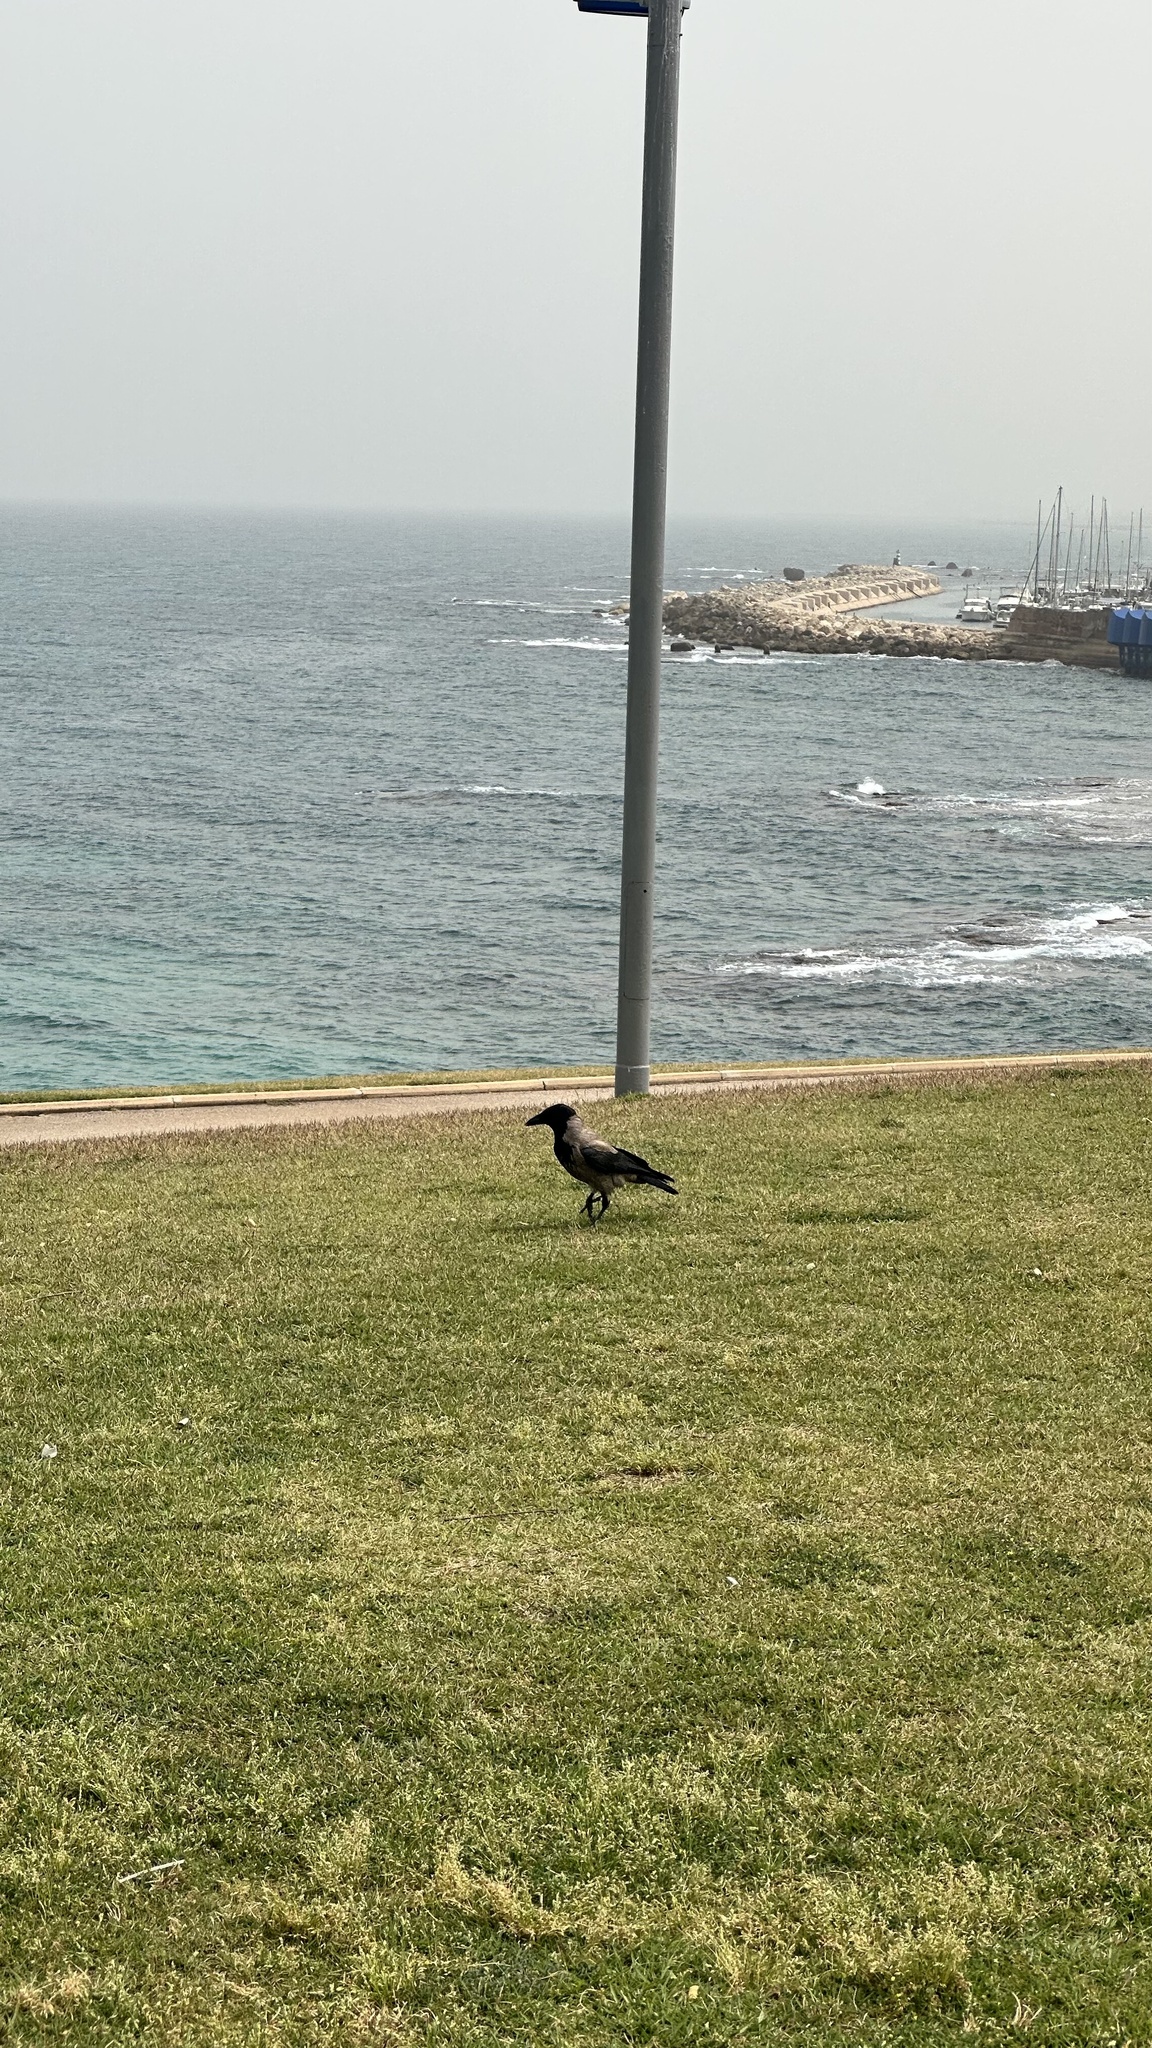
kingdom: Animalia
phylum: Chordata
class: Aves
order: Passeriformes
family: Corvidae
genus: Corvus
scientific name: Corvus cornix
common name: Hooded crow
